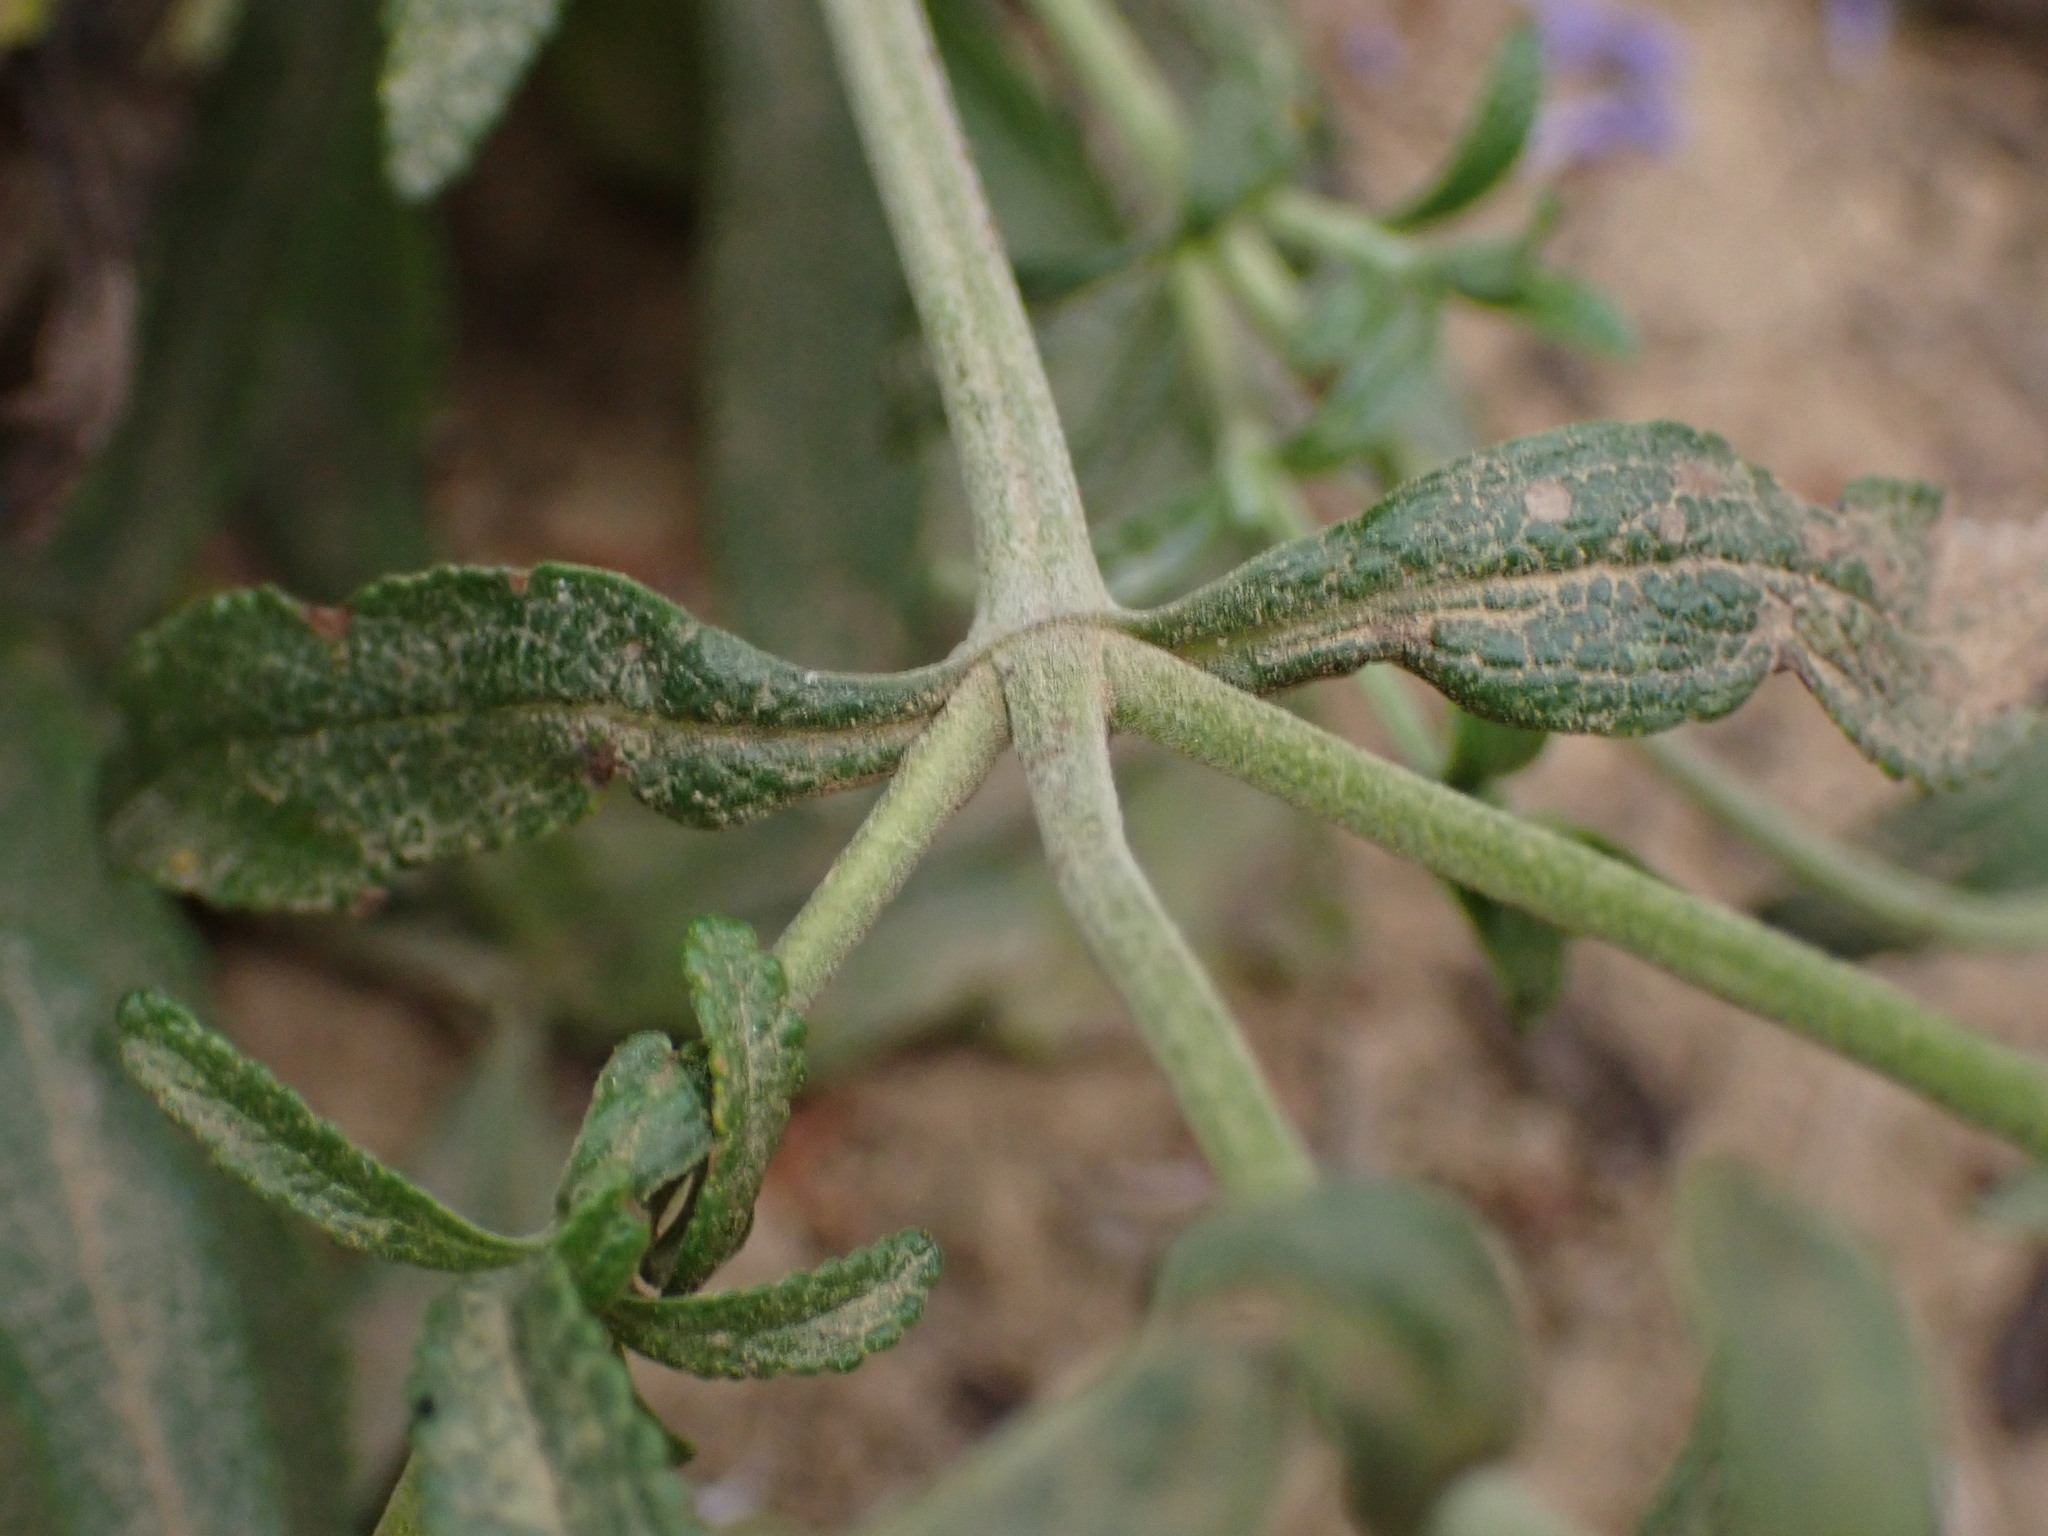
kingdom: Plantae
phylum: Tracheophyta
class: Magnoliopsida
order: Lamiales
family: Lamiaceae
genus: Salvia
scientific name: Salvia mellifera
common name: Black sage
